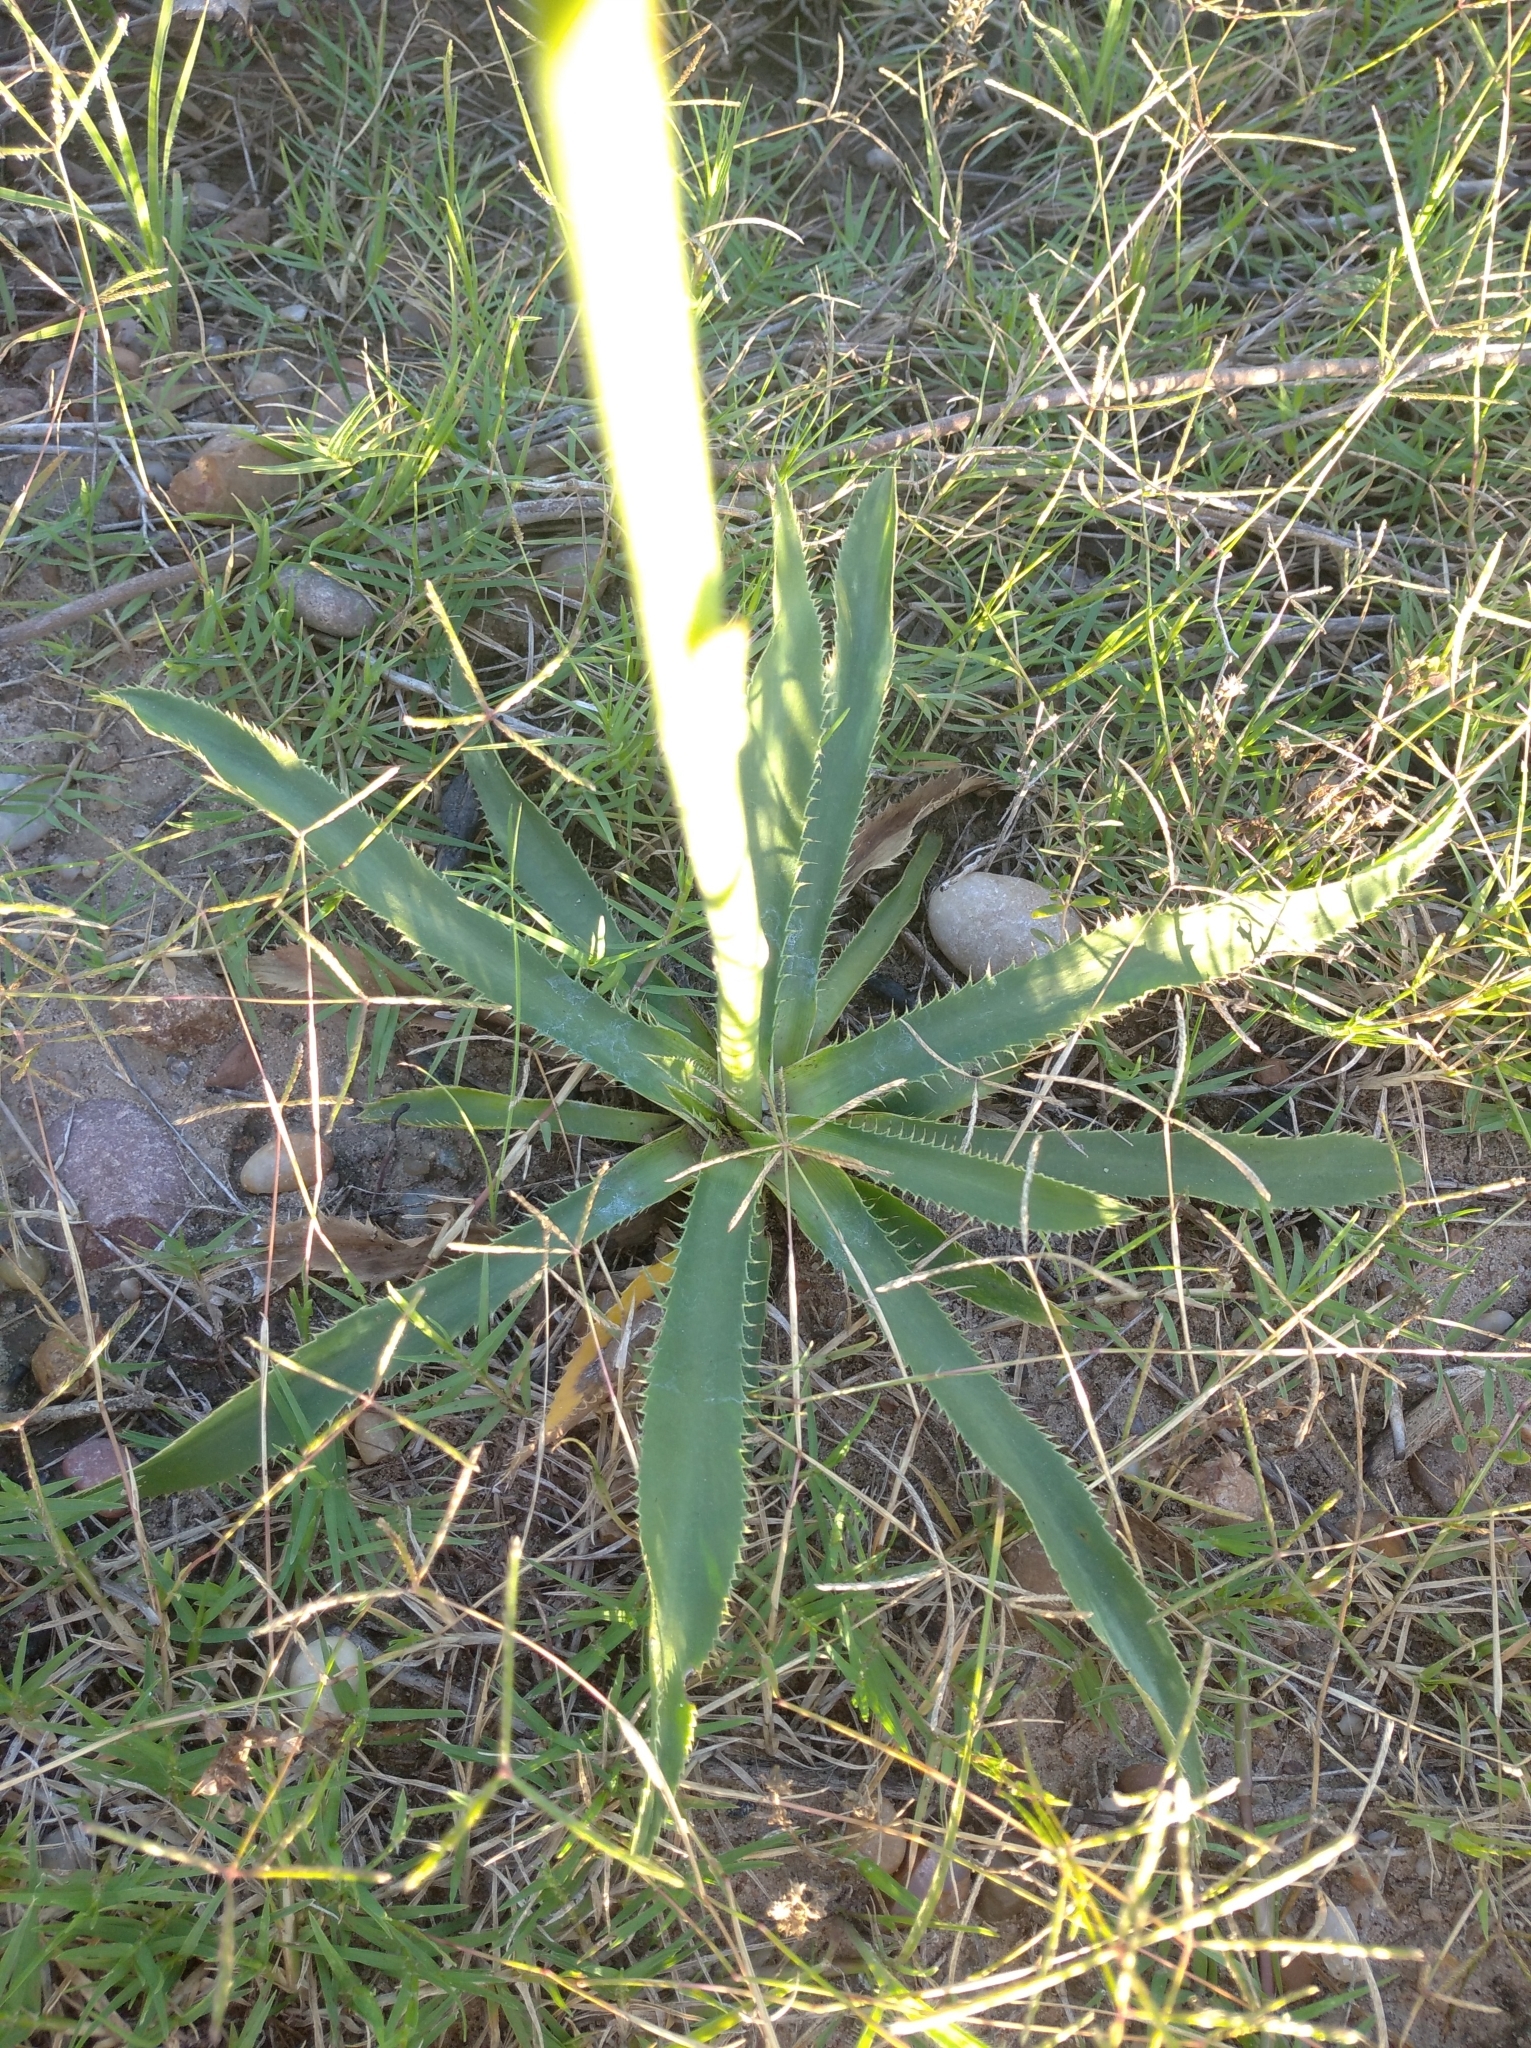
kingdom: Plantae
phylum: Tracheophyta
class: Magnoliopsida
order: Apiales
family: Apiaceae
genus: Eryngium
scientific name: Eryngium elegans
